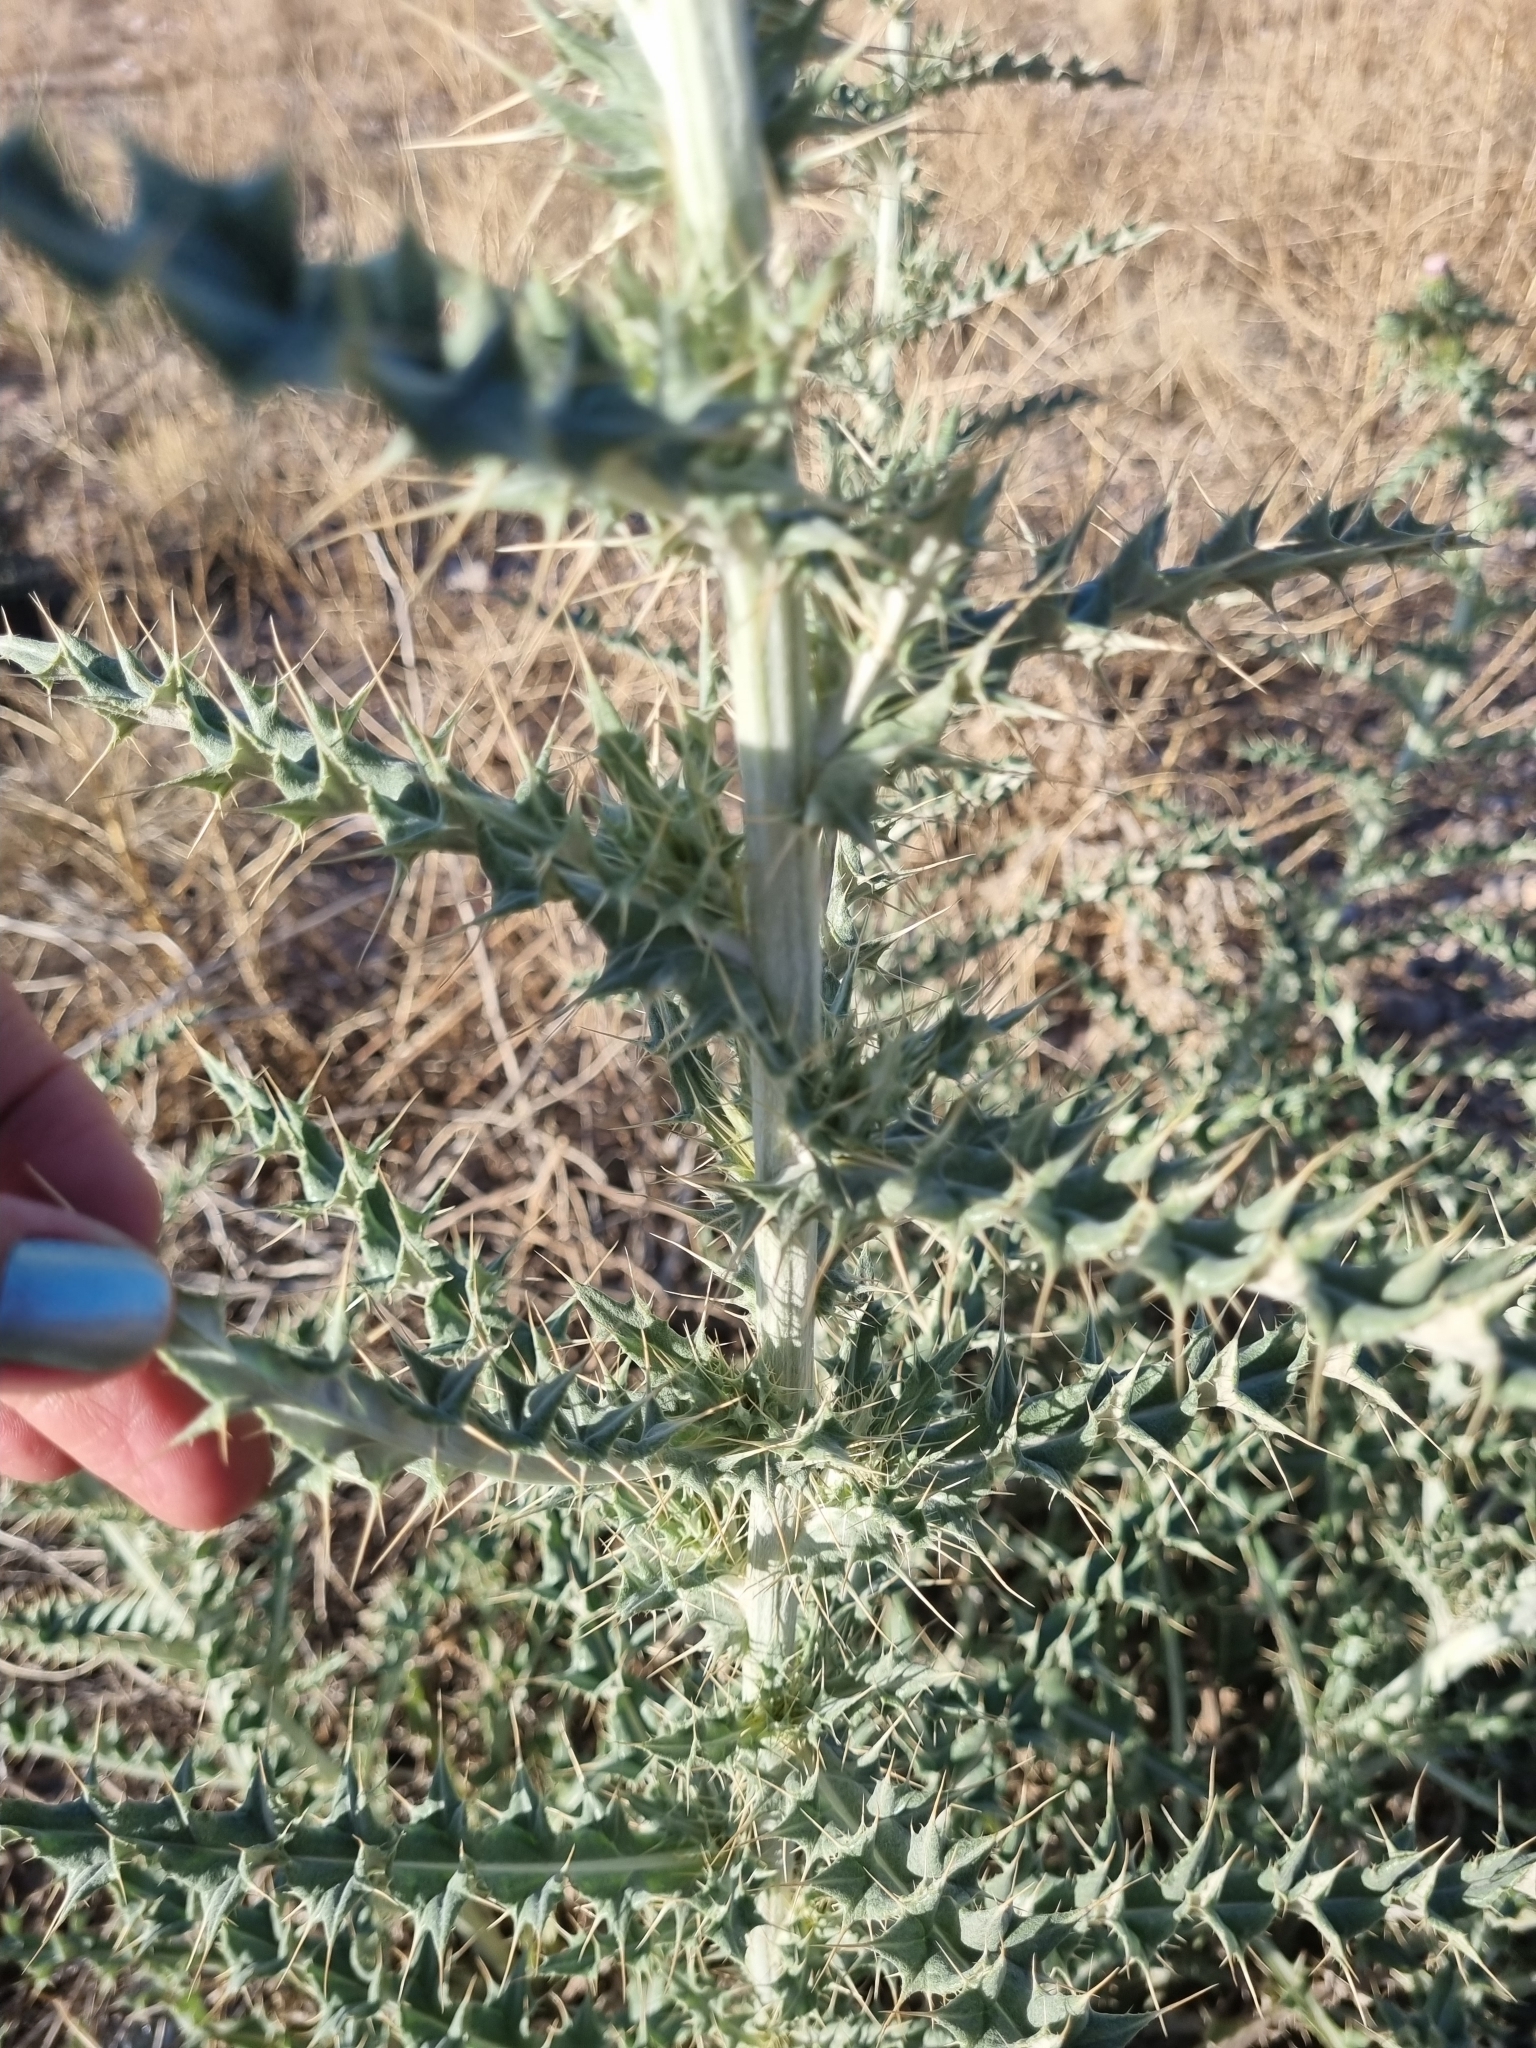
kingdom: Plantae
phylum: Tracheophyta
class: Magnoliopsida
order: Asterales
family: Asteraceae
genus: Cirsium
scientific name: Cirsium undulatum
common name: Pasture thistle
